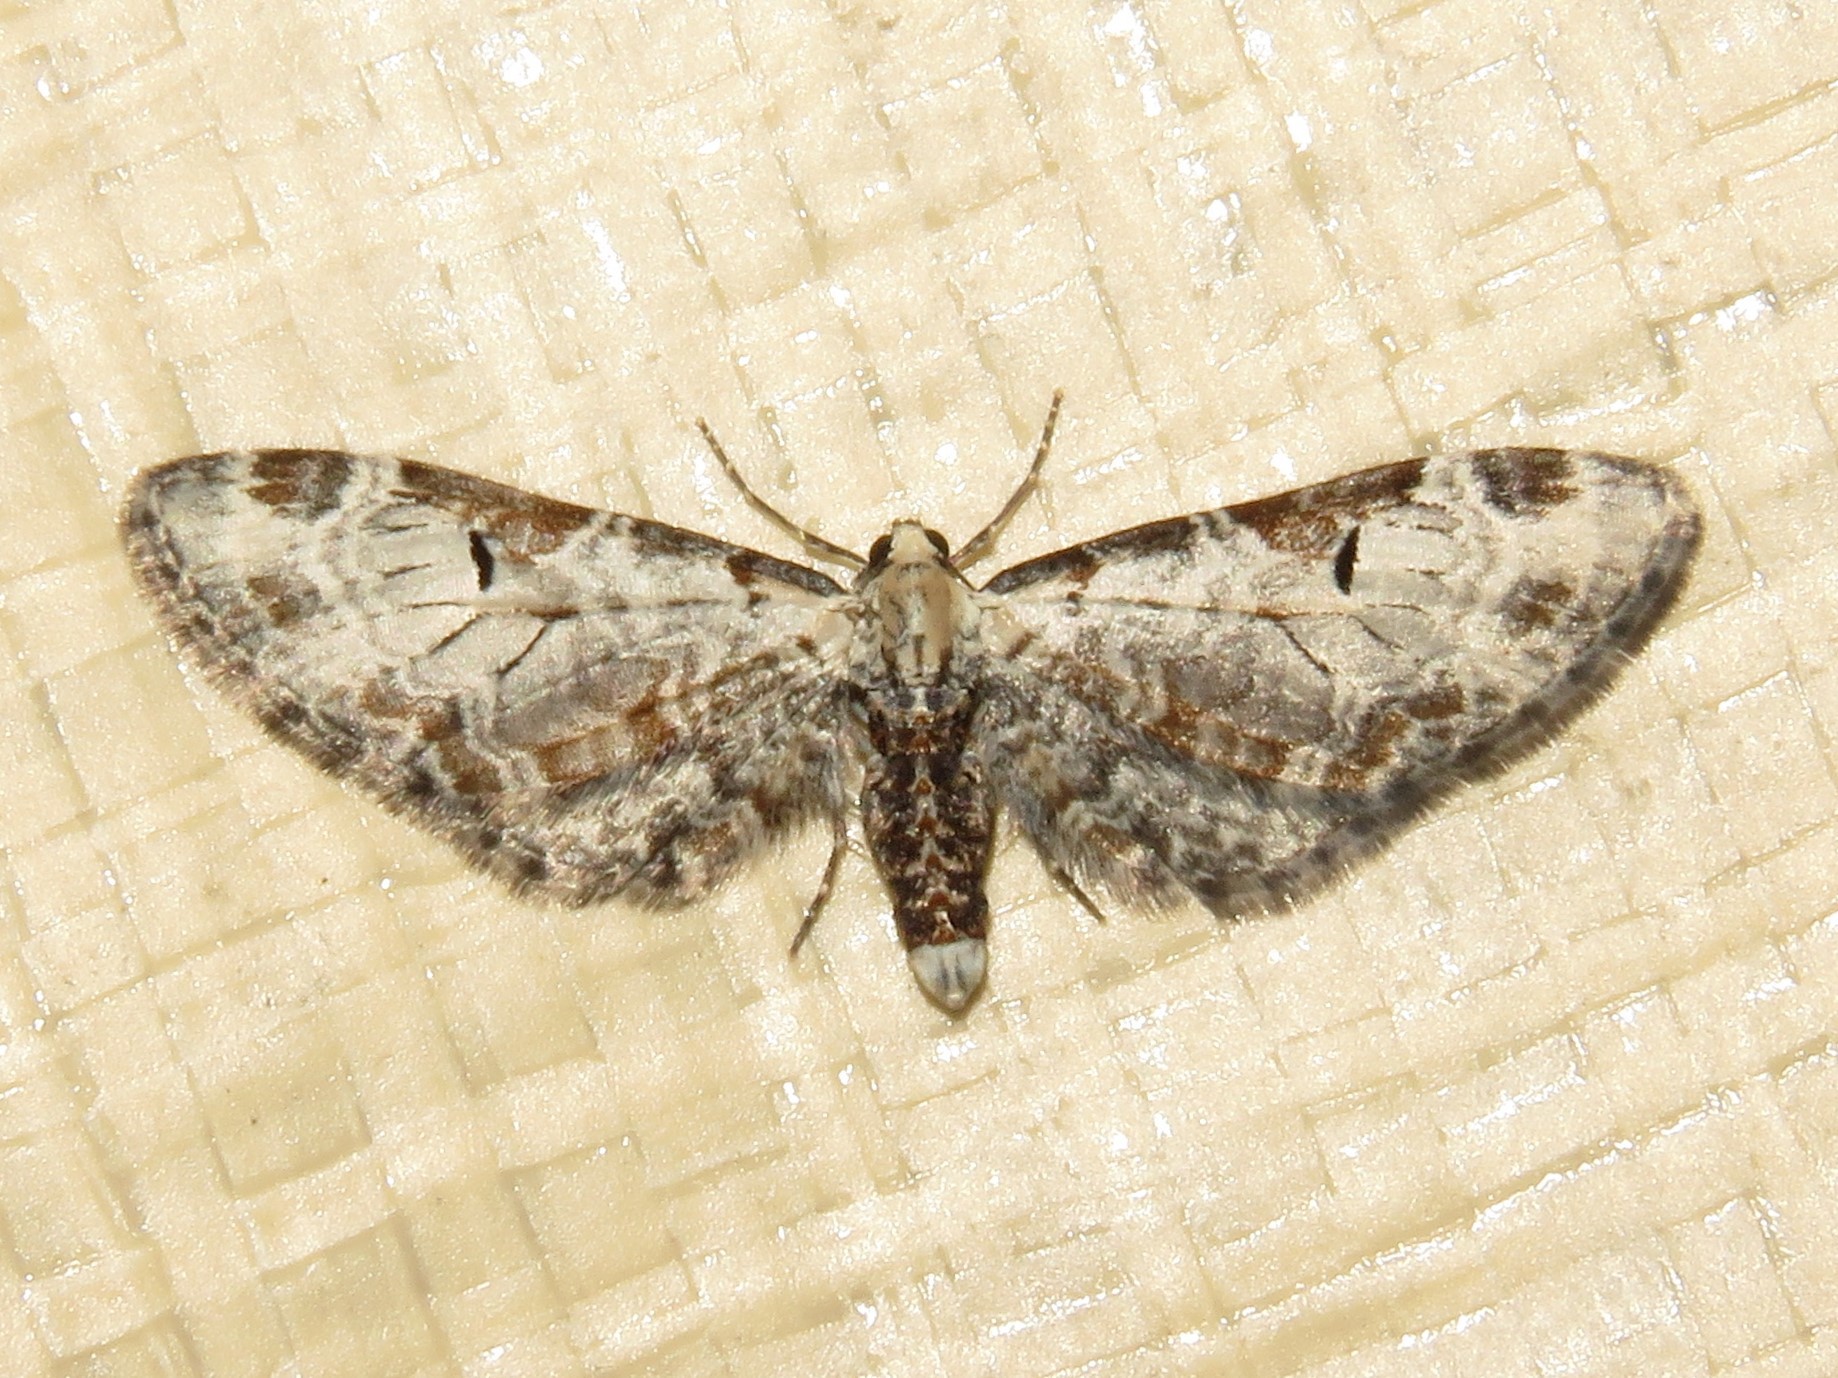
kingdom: Animalia
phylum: Arthropoda
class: Insecta
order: Lepidoptera
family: Geometridae
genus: Eupithecia
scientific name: Eupithecia ravocostaliata
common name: Great varigated pug
